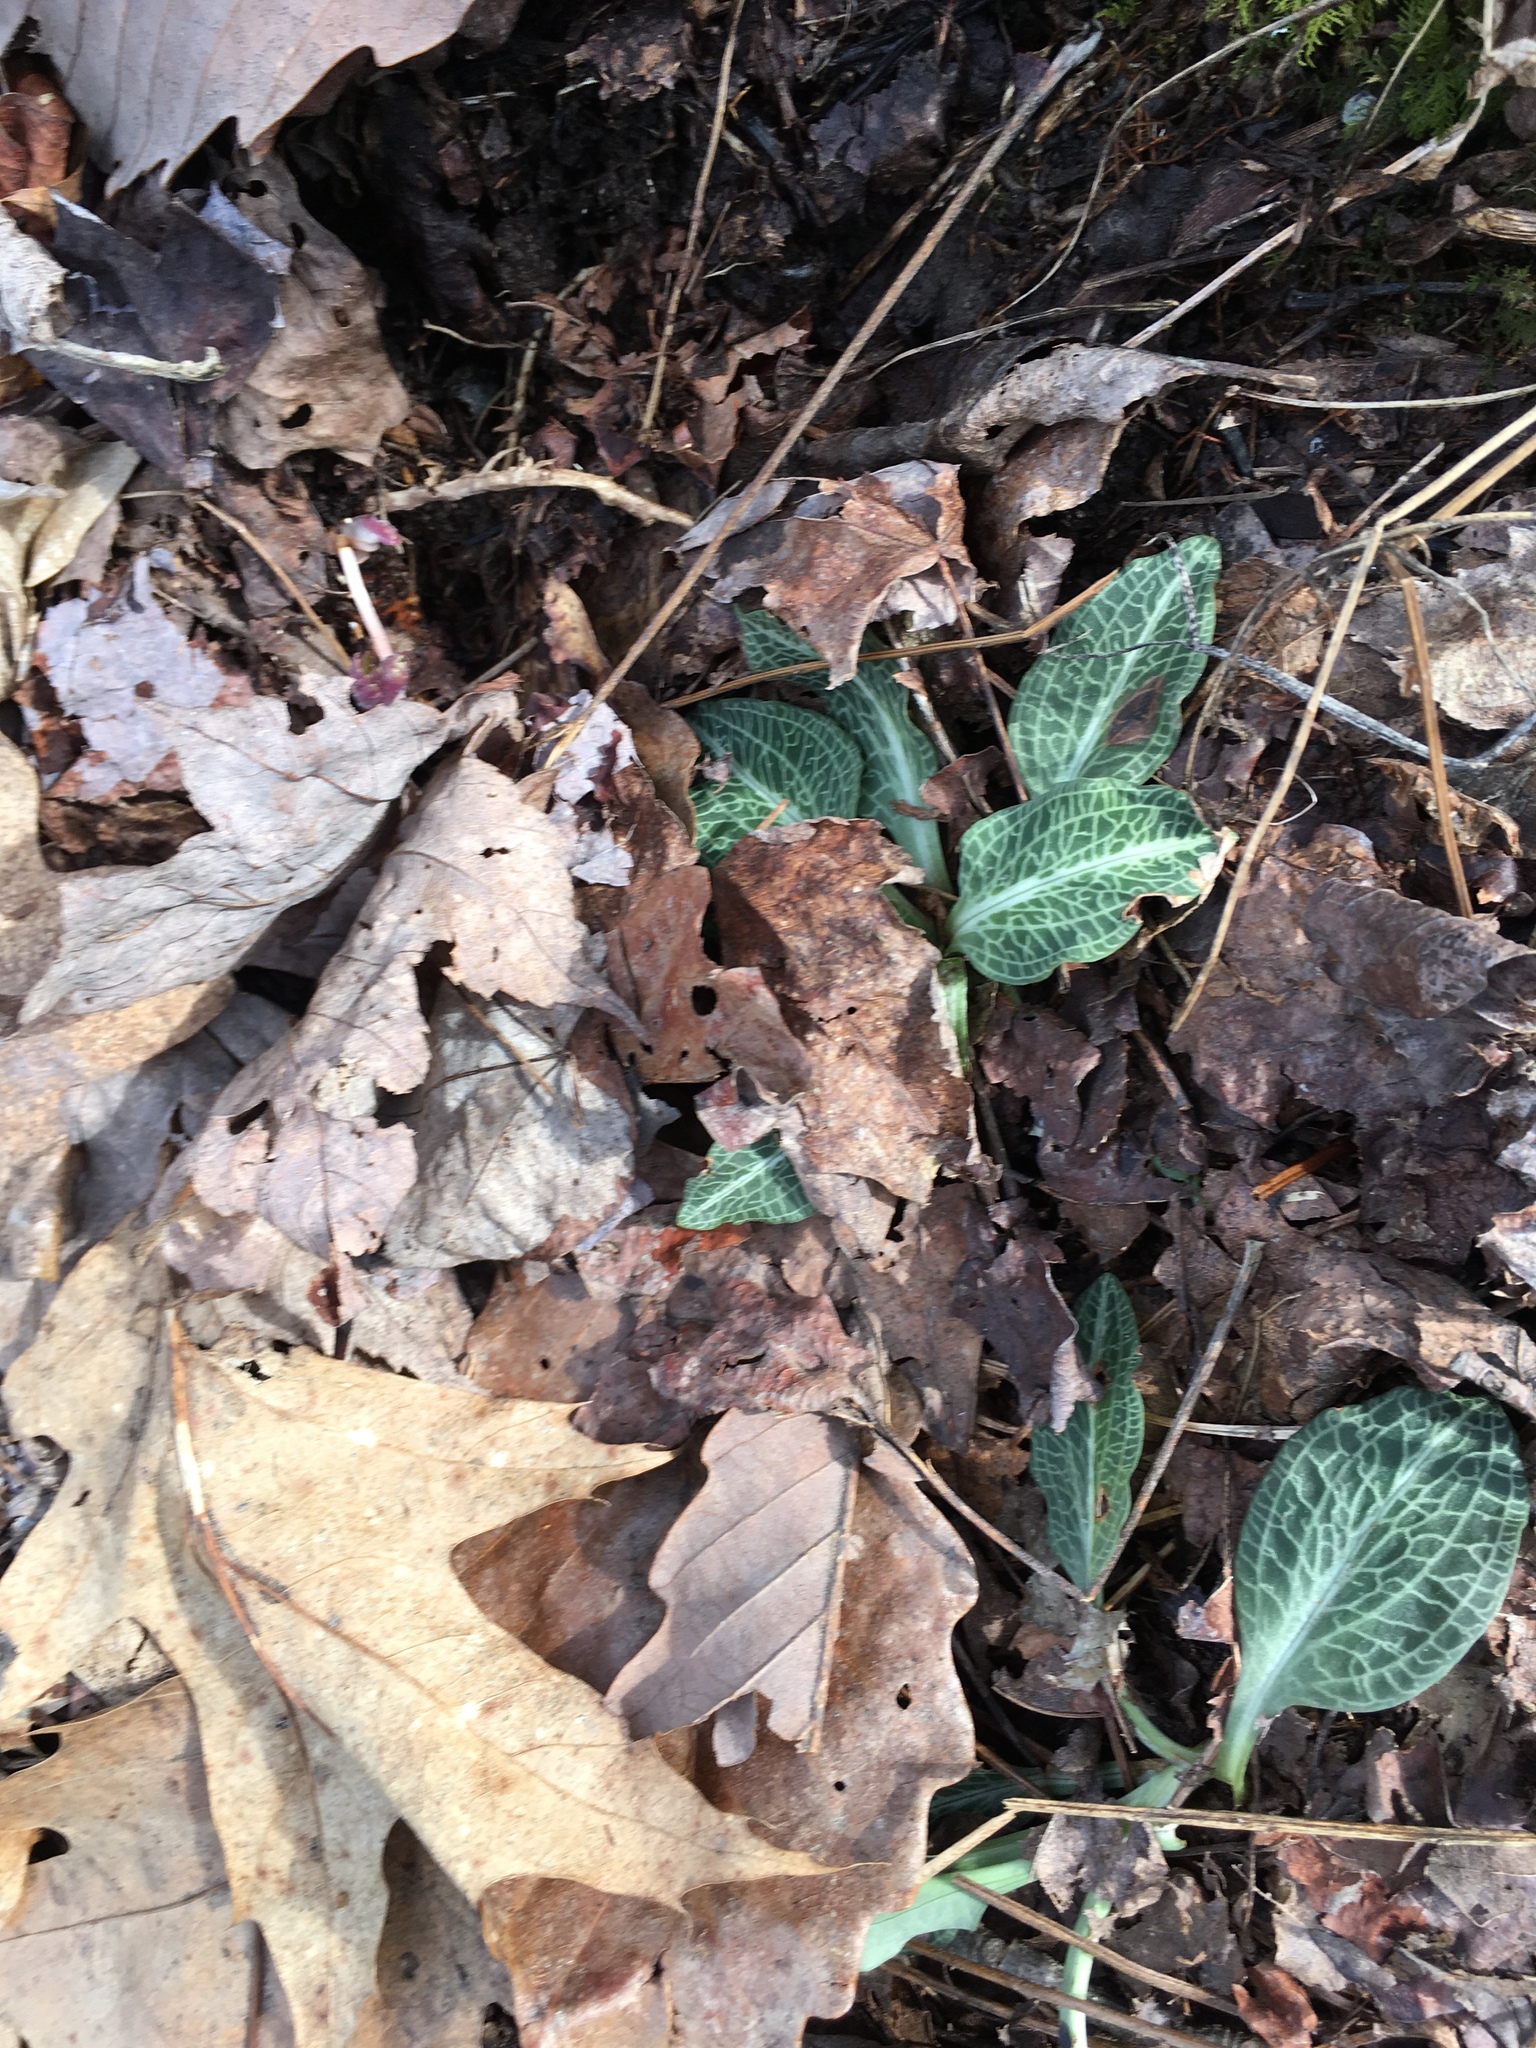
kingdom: Plantae
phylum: Tracheophyta
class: Liliopsida
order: Asparagales
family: Orchidaceae
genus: Goodyera
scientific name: Goodyera pubescens
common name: Downy rattlesnake-plantain
